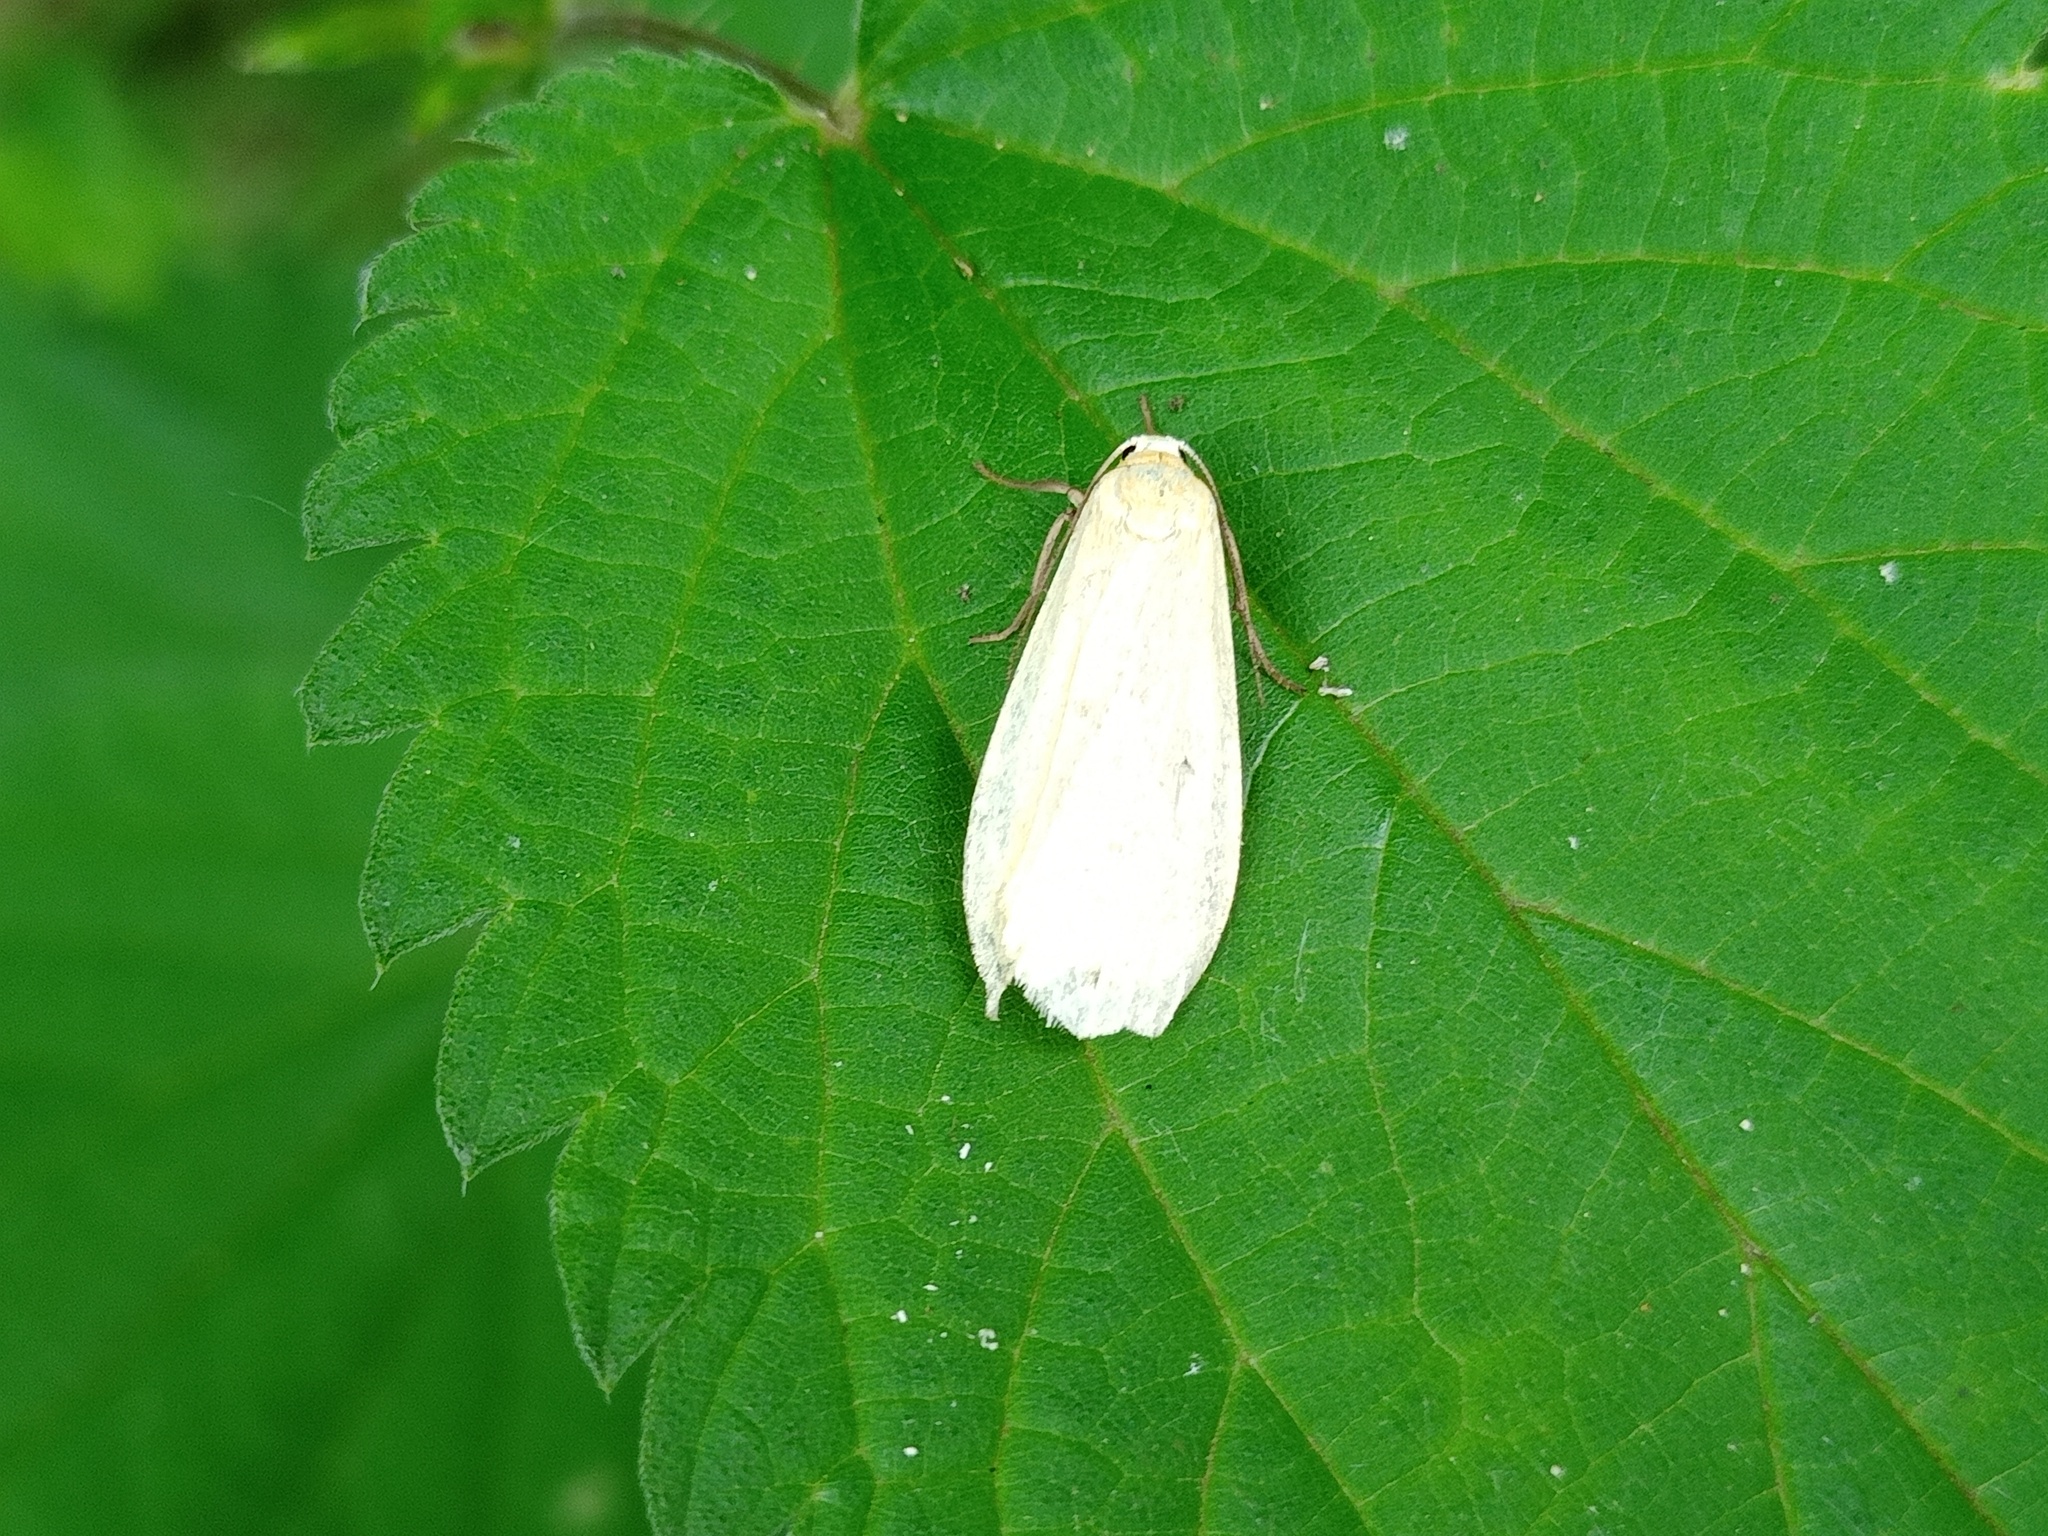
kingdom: Animalia
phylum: Arthropoda
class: Insecta
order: Lepidoptera
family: Erebidae
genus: Wittia
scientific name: Wittia sororcula
